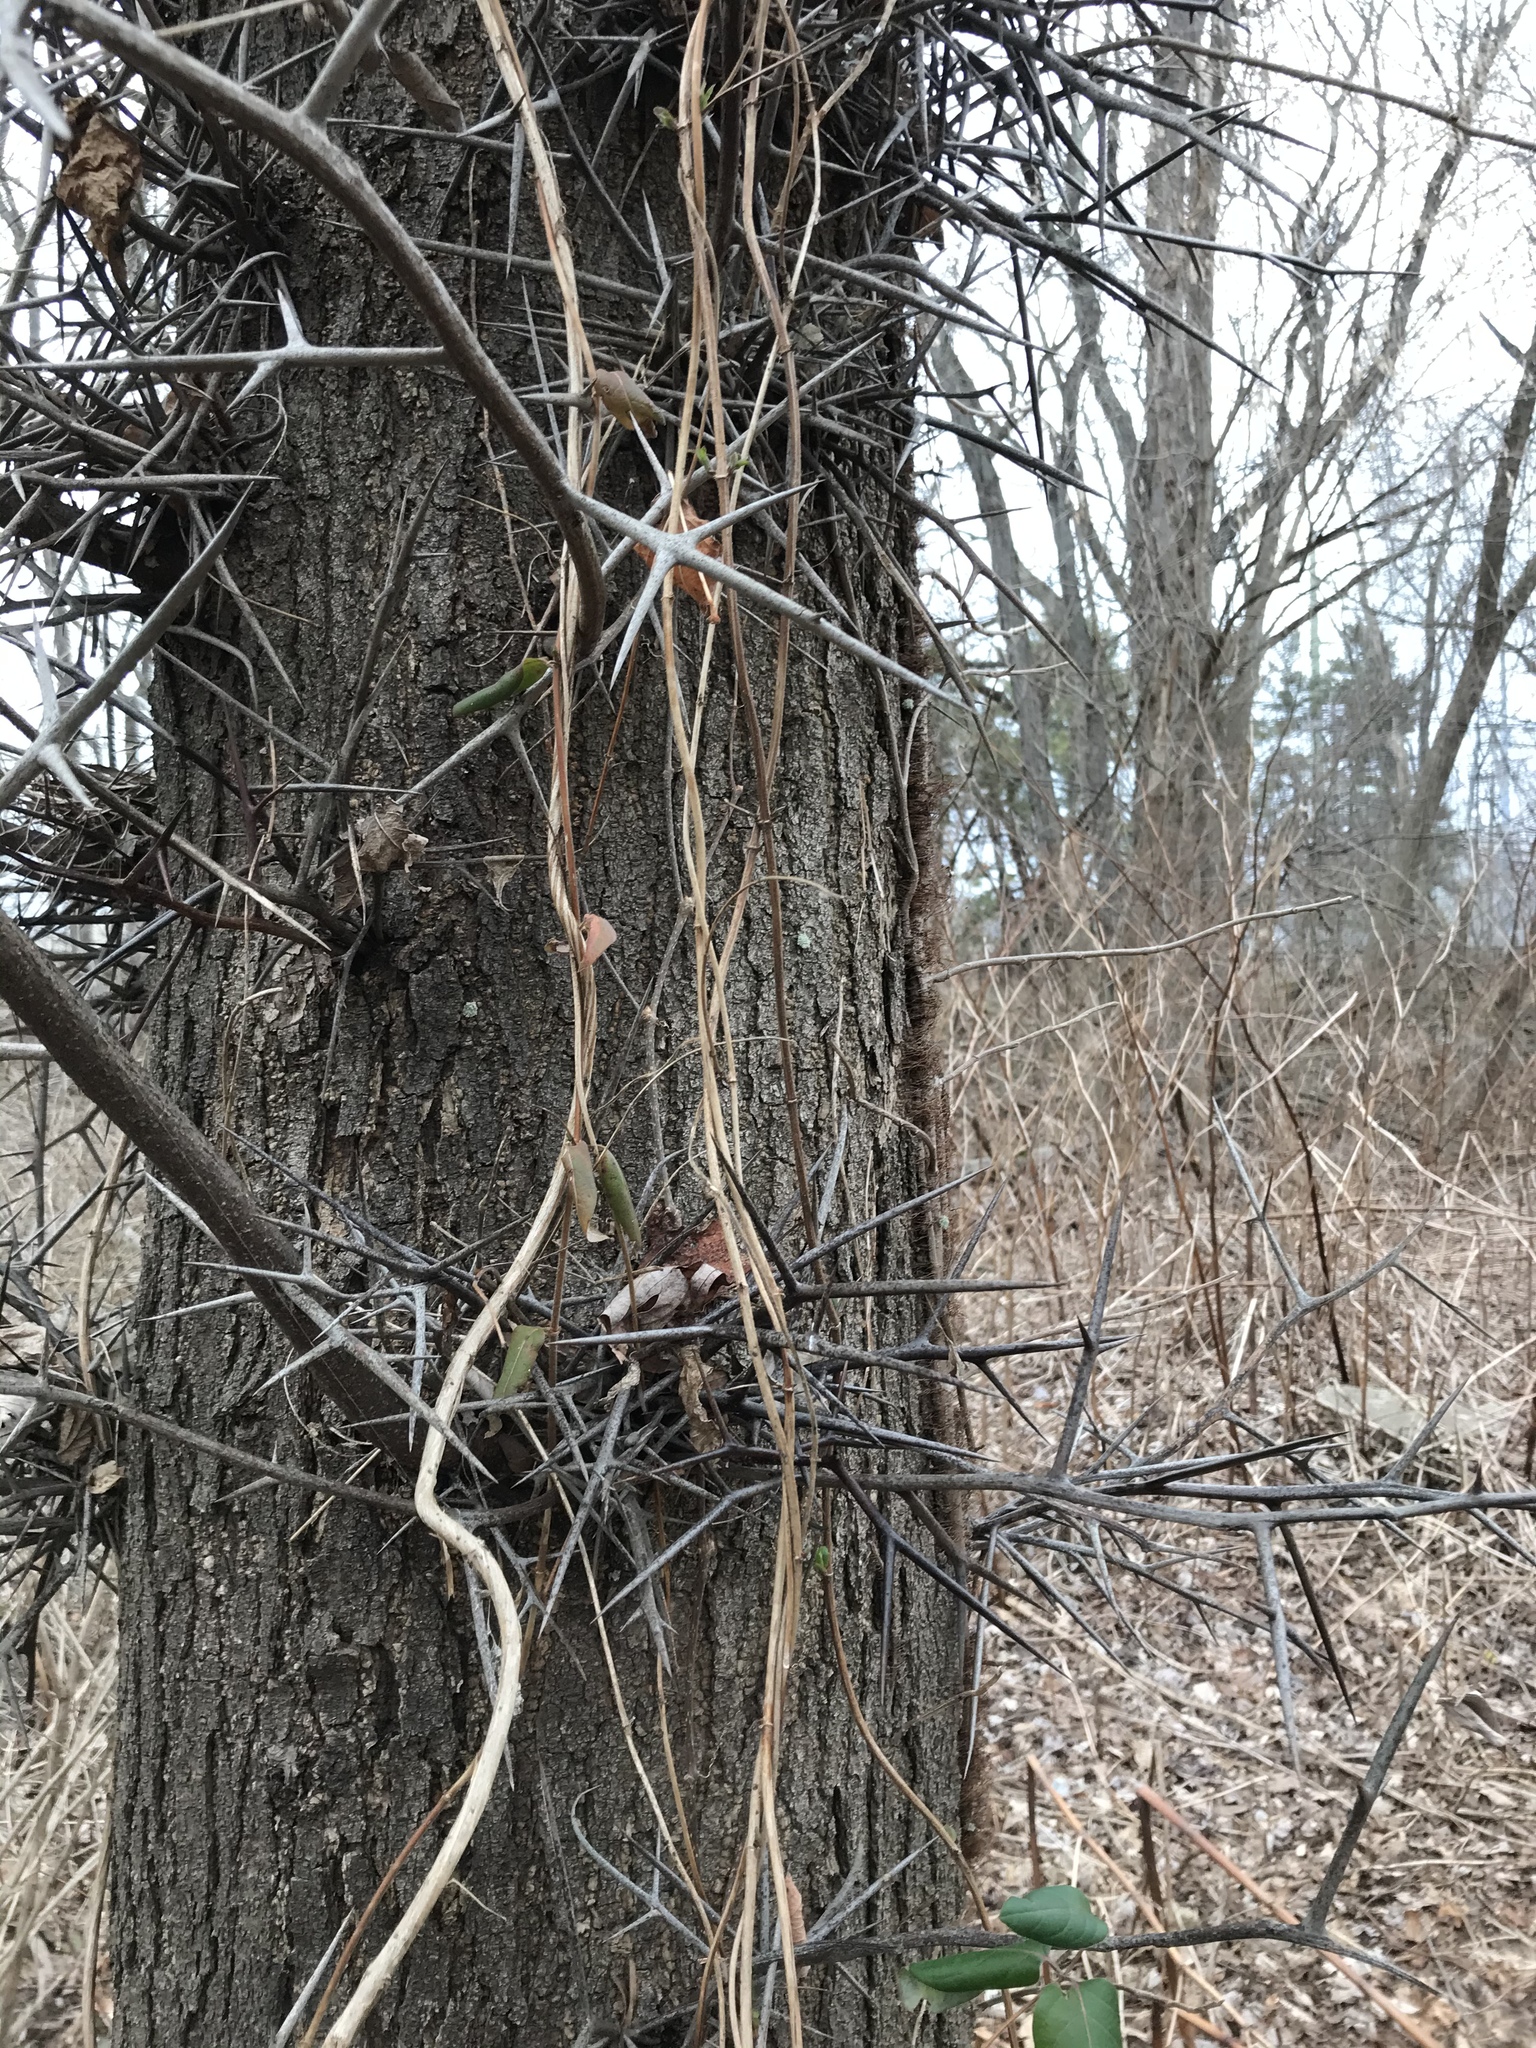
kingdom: Plantae
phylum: Tracheophyta
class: Magnoliopsida
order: Fabales
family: Fabaceae
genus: Gleditsia
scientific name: Gleditsia triacanthos
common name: Common honeylocust
